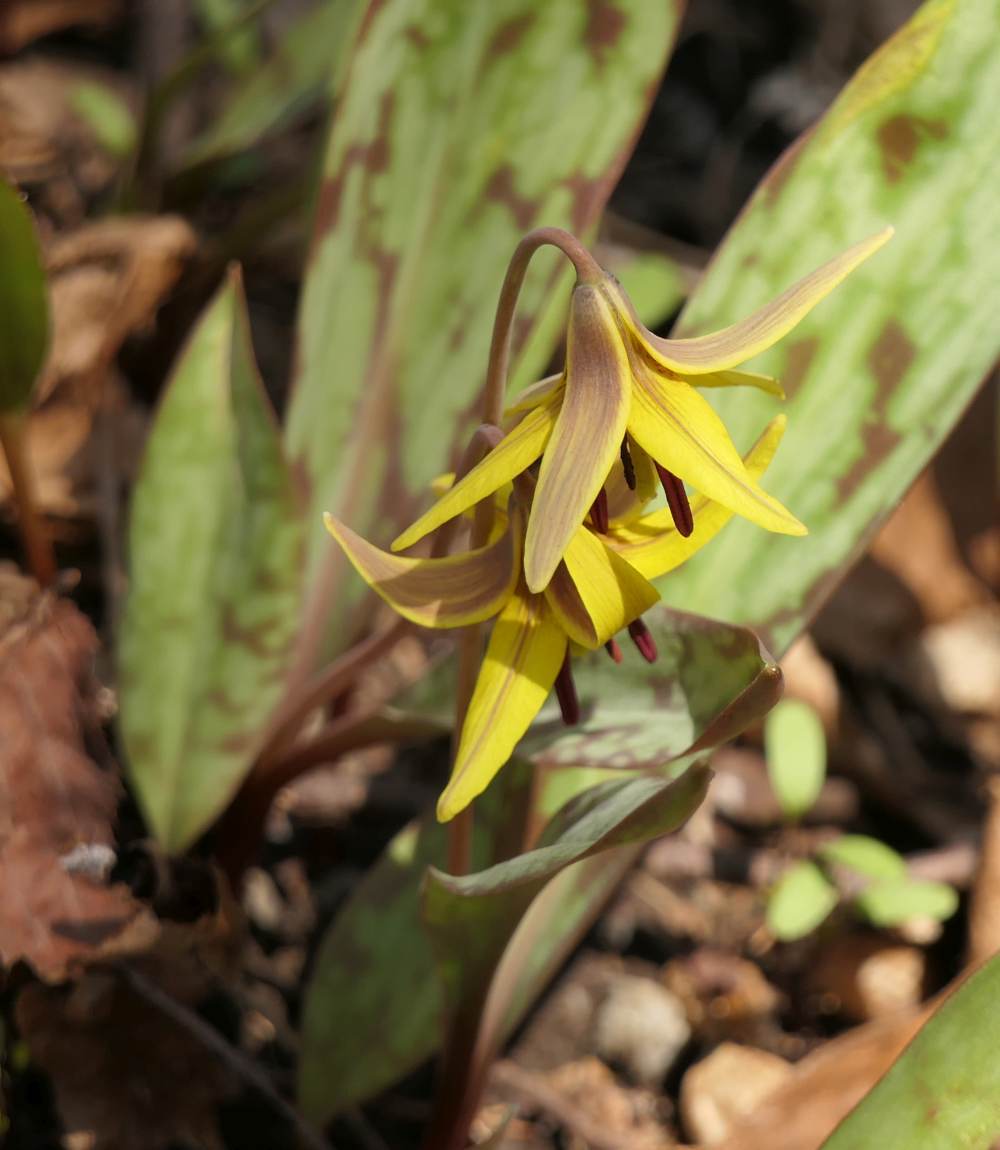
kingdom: Plantae
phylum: Tracheophyta
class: Liliopsida
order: Liliales
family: Liliaceae
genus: Erythronium
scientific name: Erythronium americanum
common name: Yellow adder's-tongue
